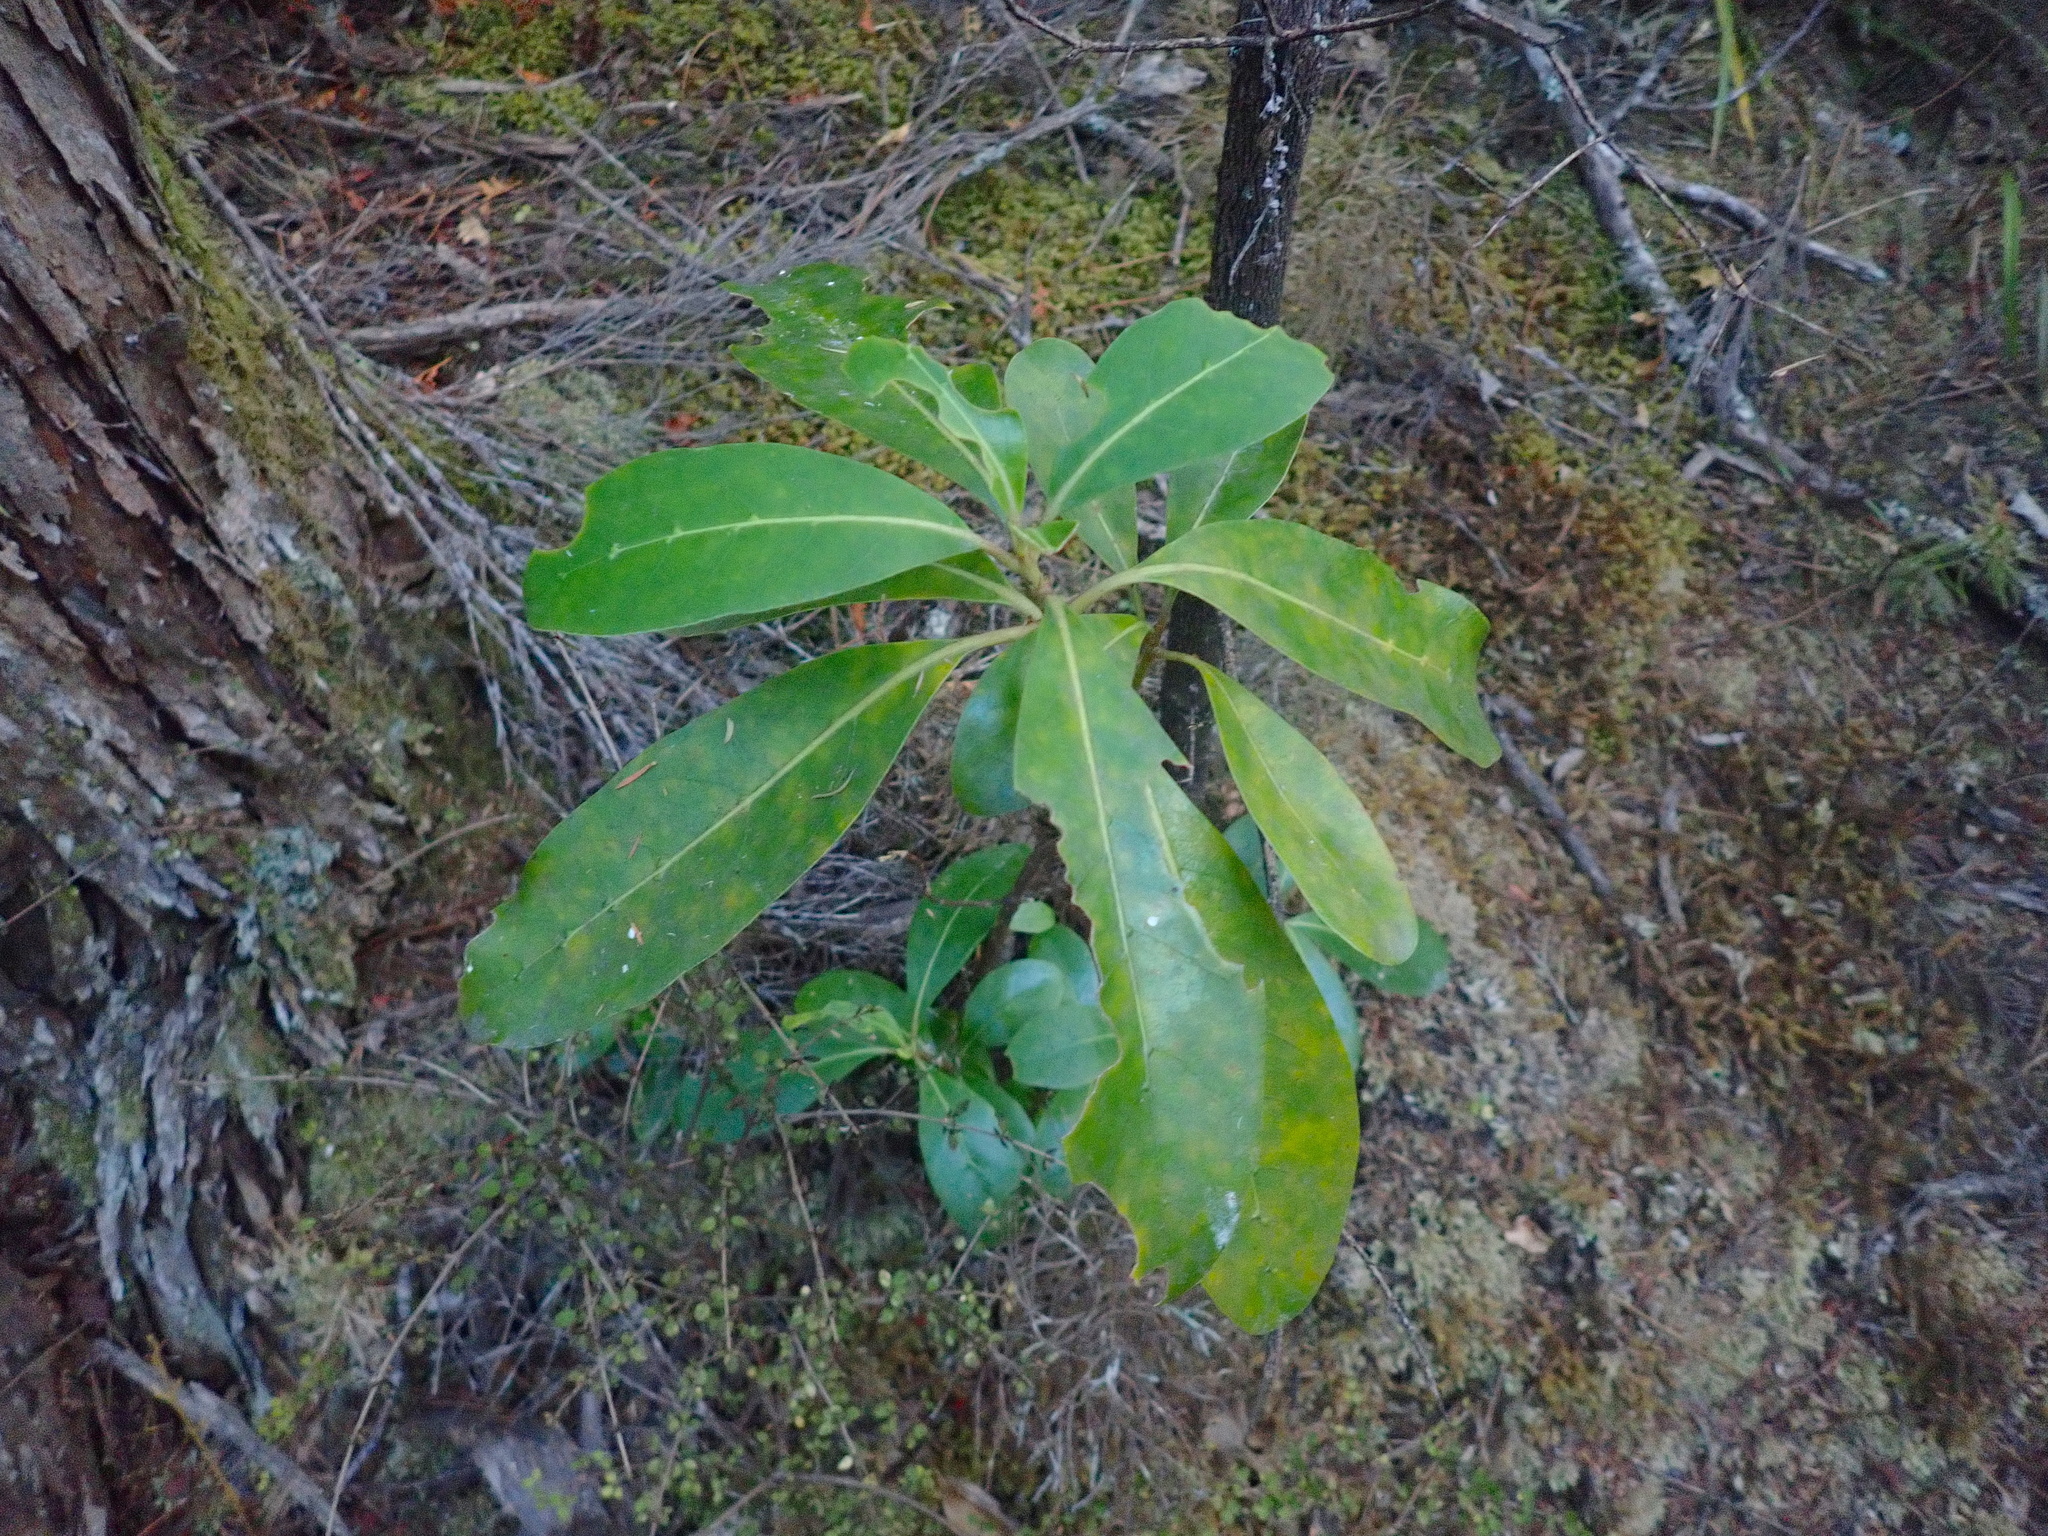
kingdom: Plantae
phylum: Tracheophyta
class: Magnoliopsida
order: Gentianales
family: Rubiaceae
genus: Coprosma
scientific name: Coprosma lucida
